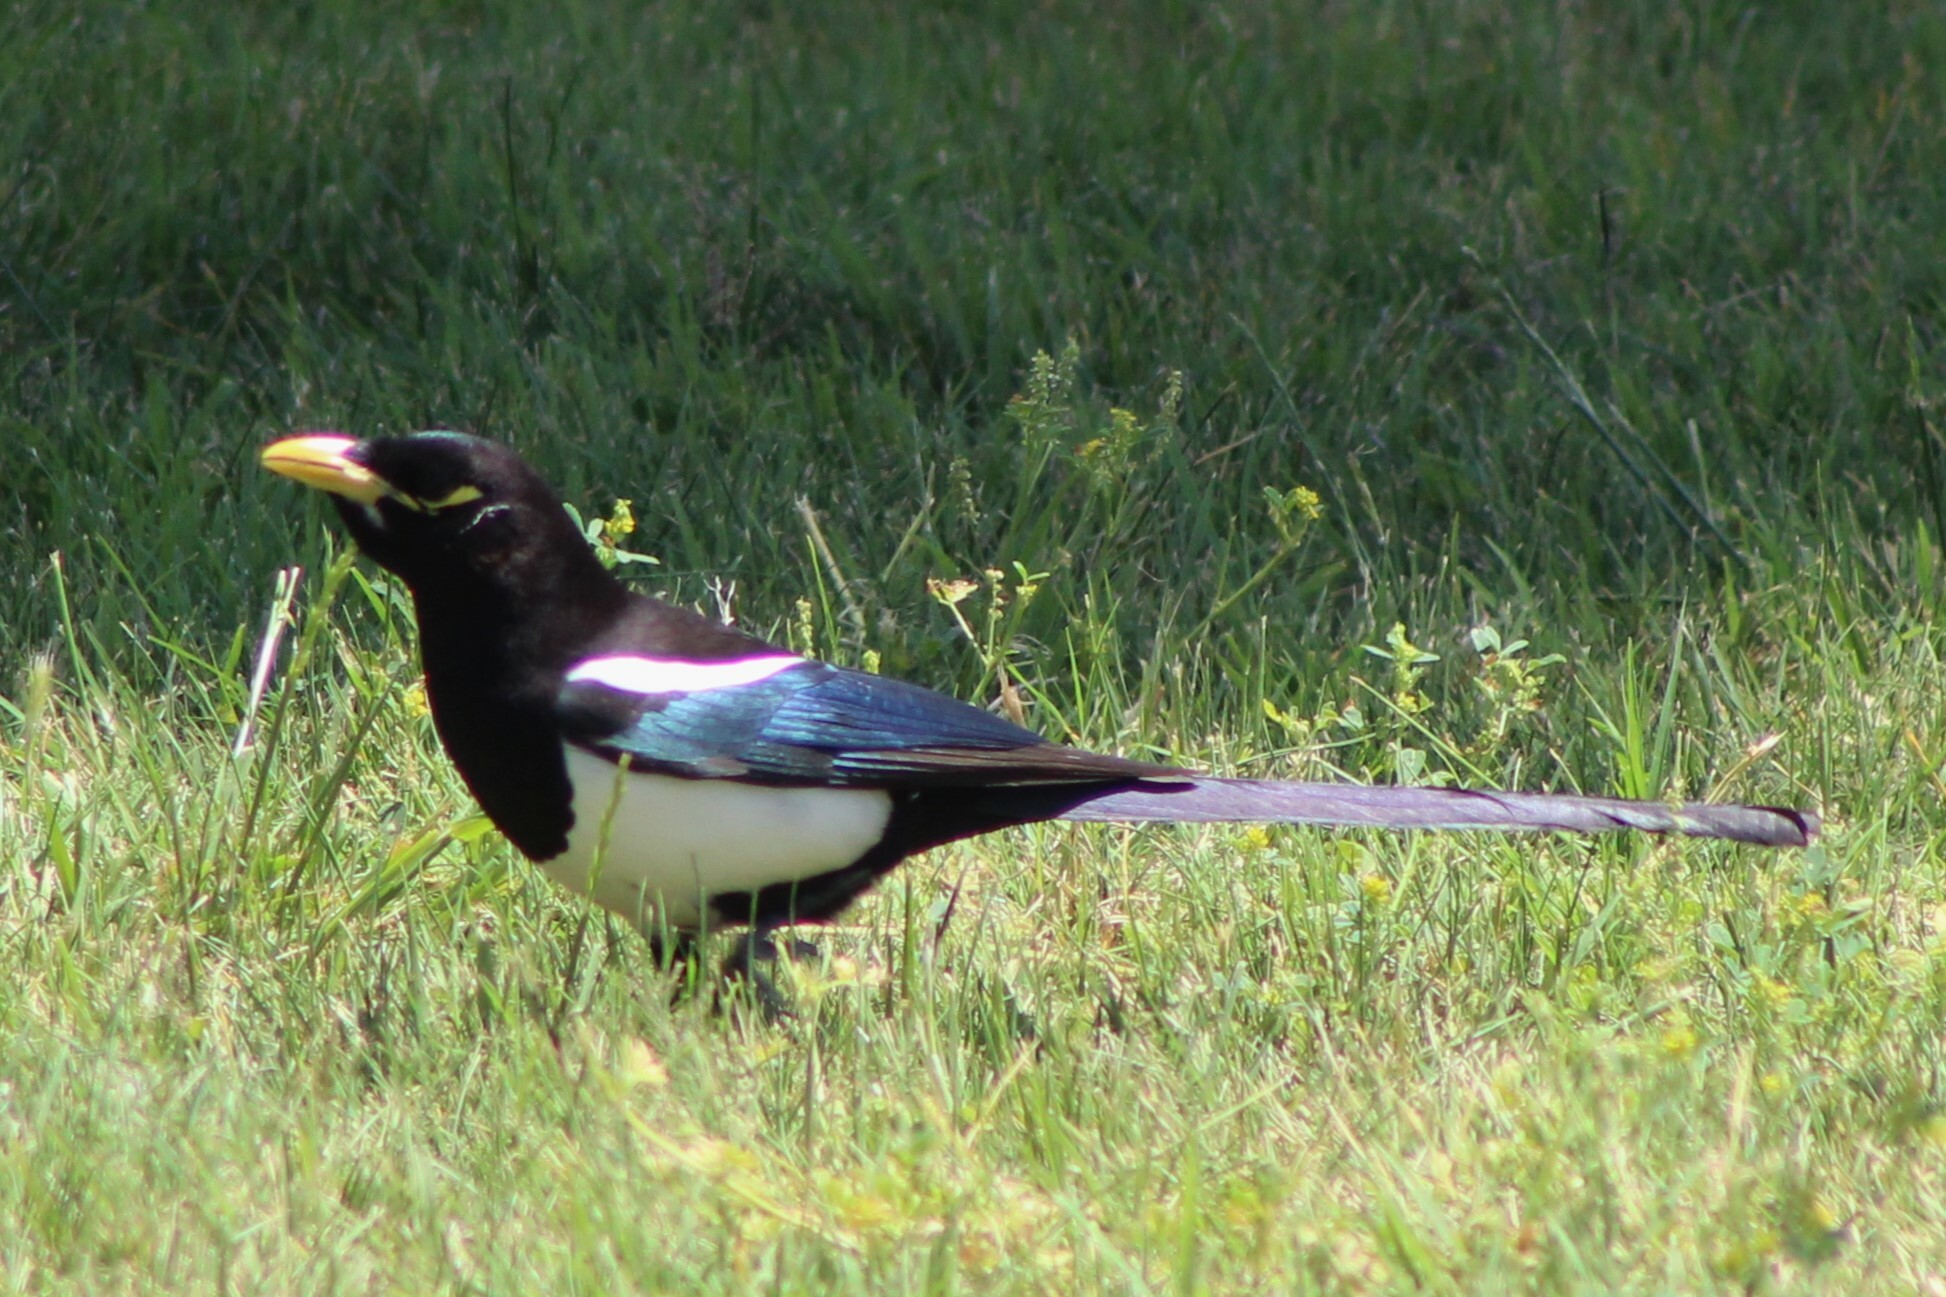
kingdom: Animalia
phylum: Chordata
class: Aves
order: Passeriformes
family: Corvidae
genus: Pica
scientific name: Pica nuttalli
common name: Yellow-billed magpie
